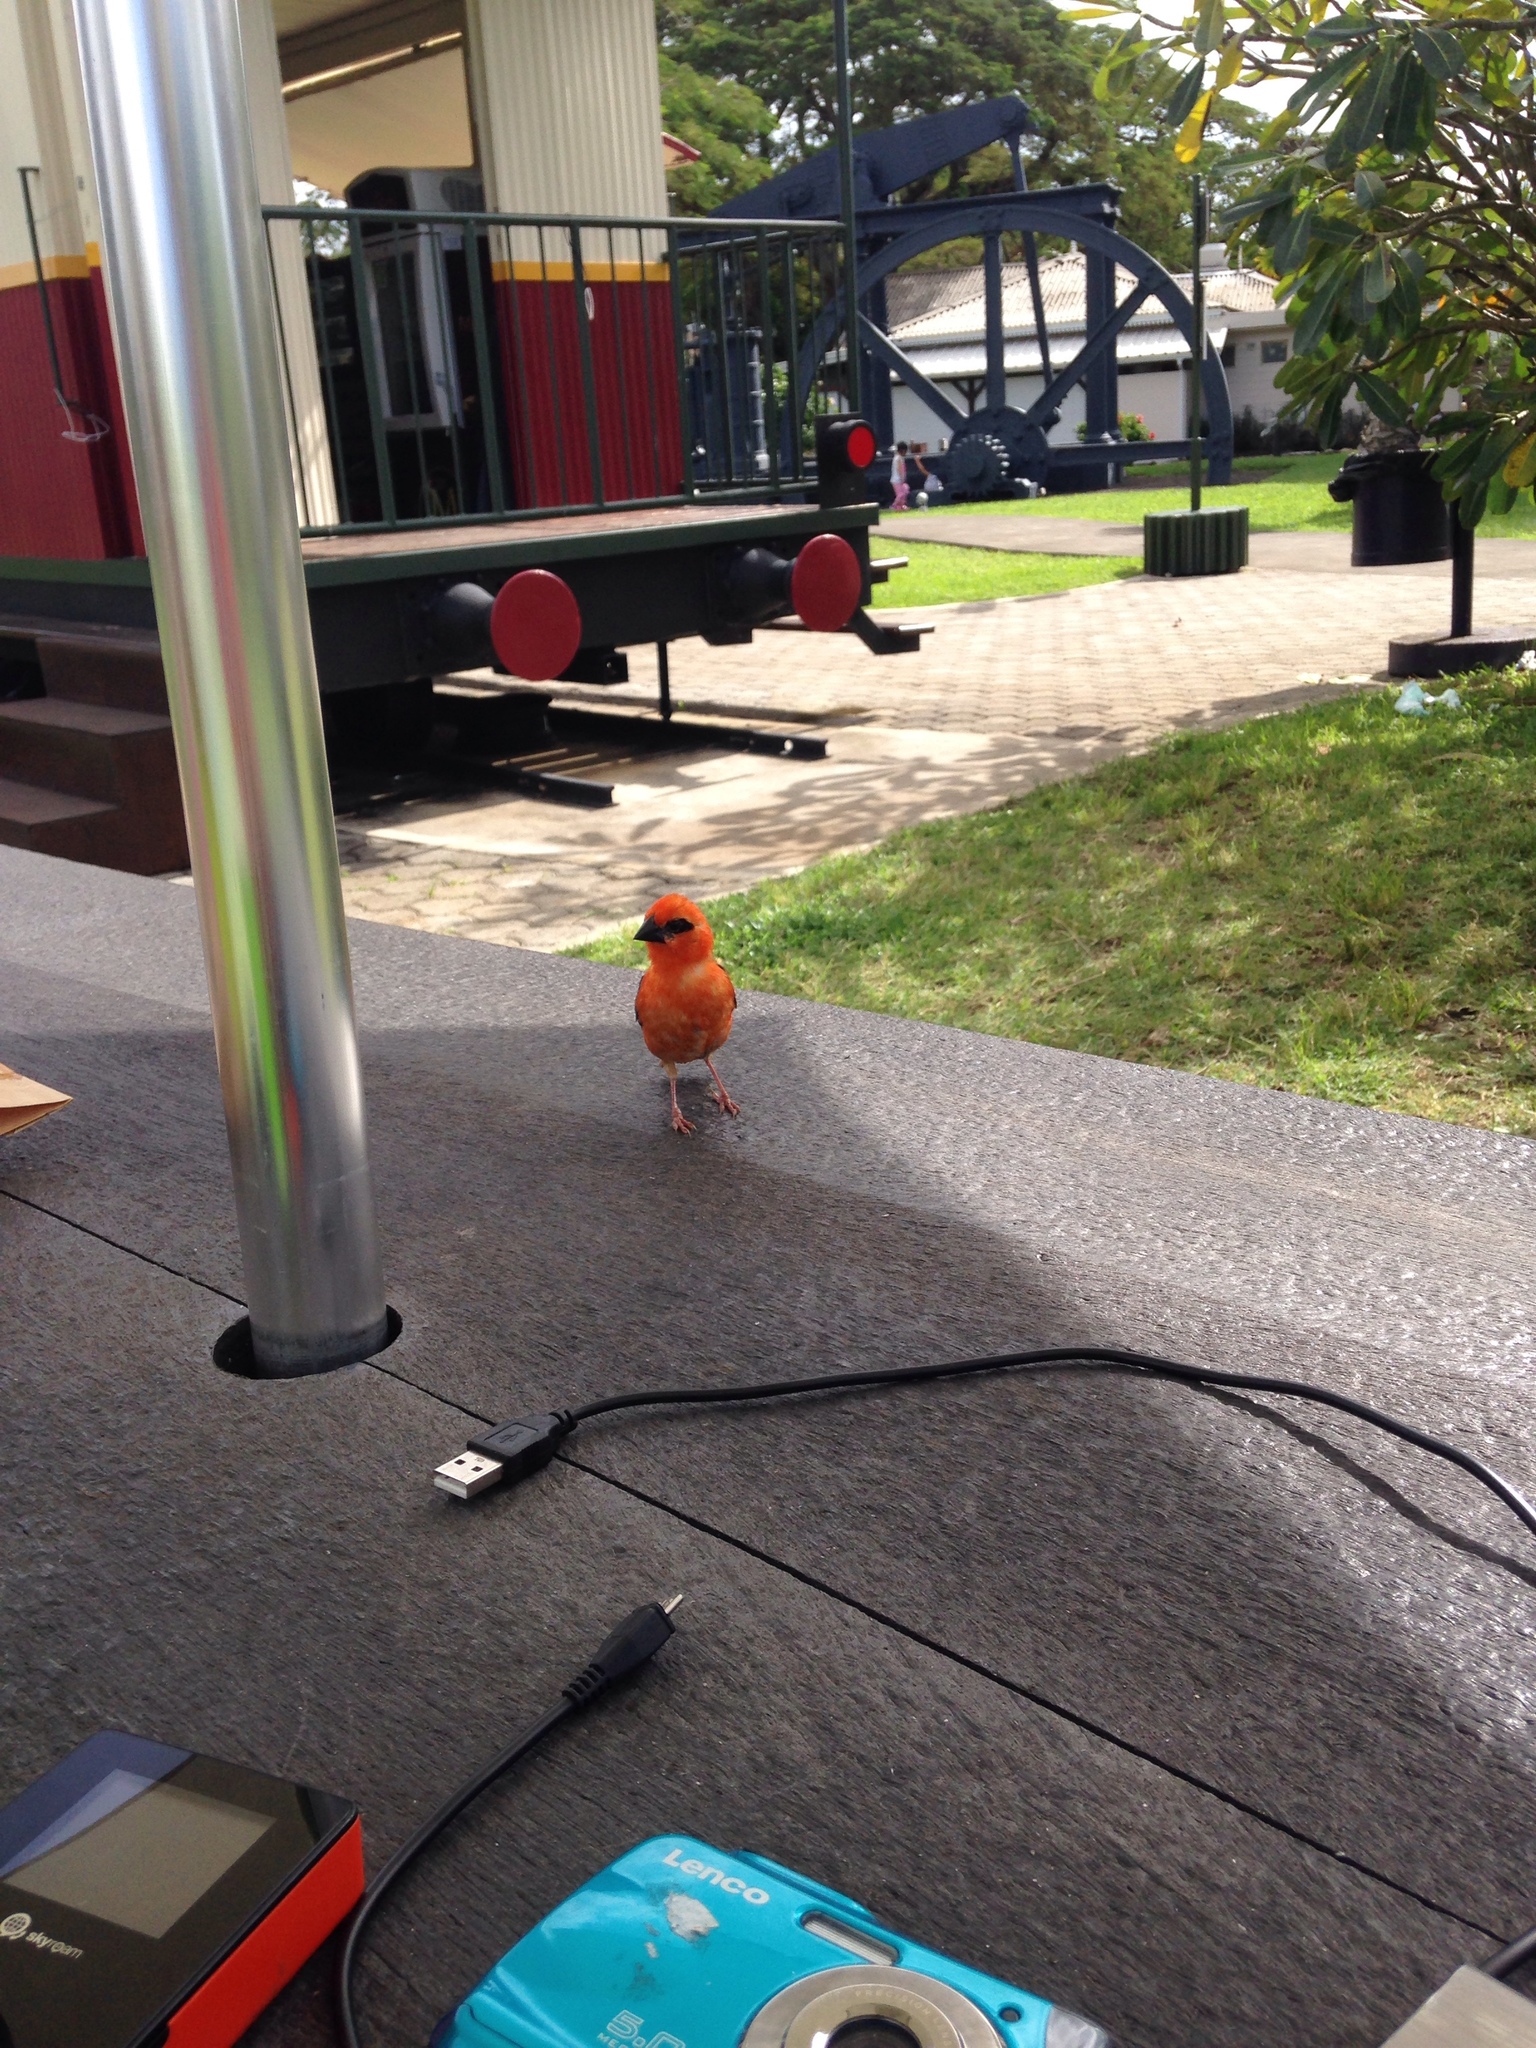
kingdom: Animalia
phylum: Chordata
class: Aves
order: Passeriformes
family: Ploceidae
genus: Foudia
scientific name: Foudia madagascariensis
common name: Red fody
